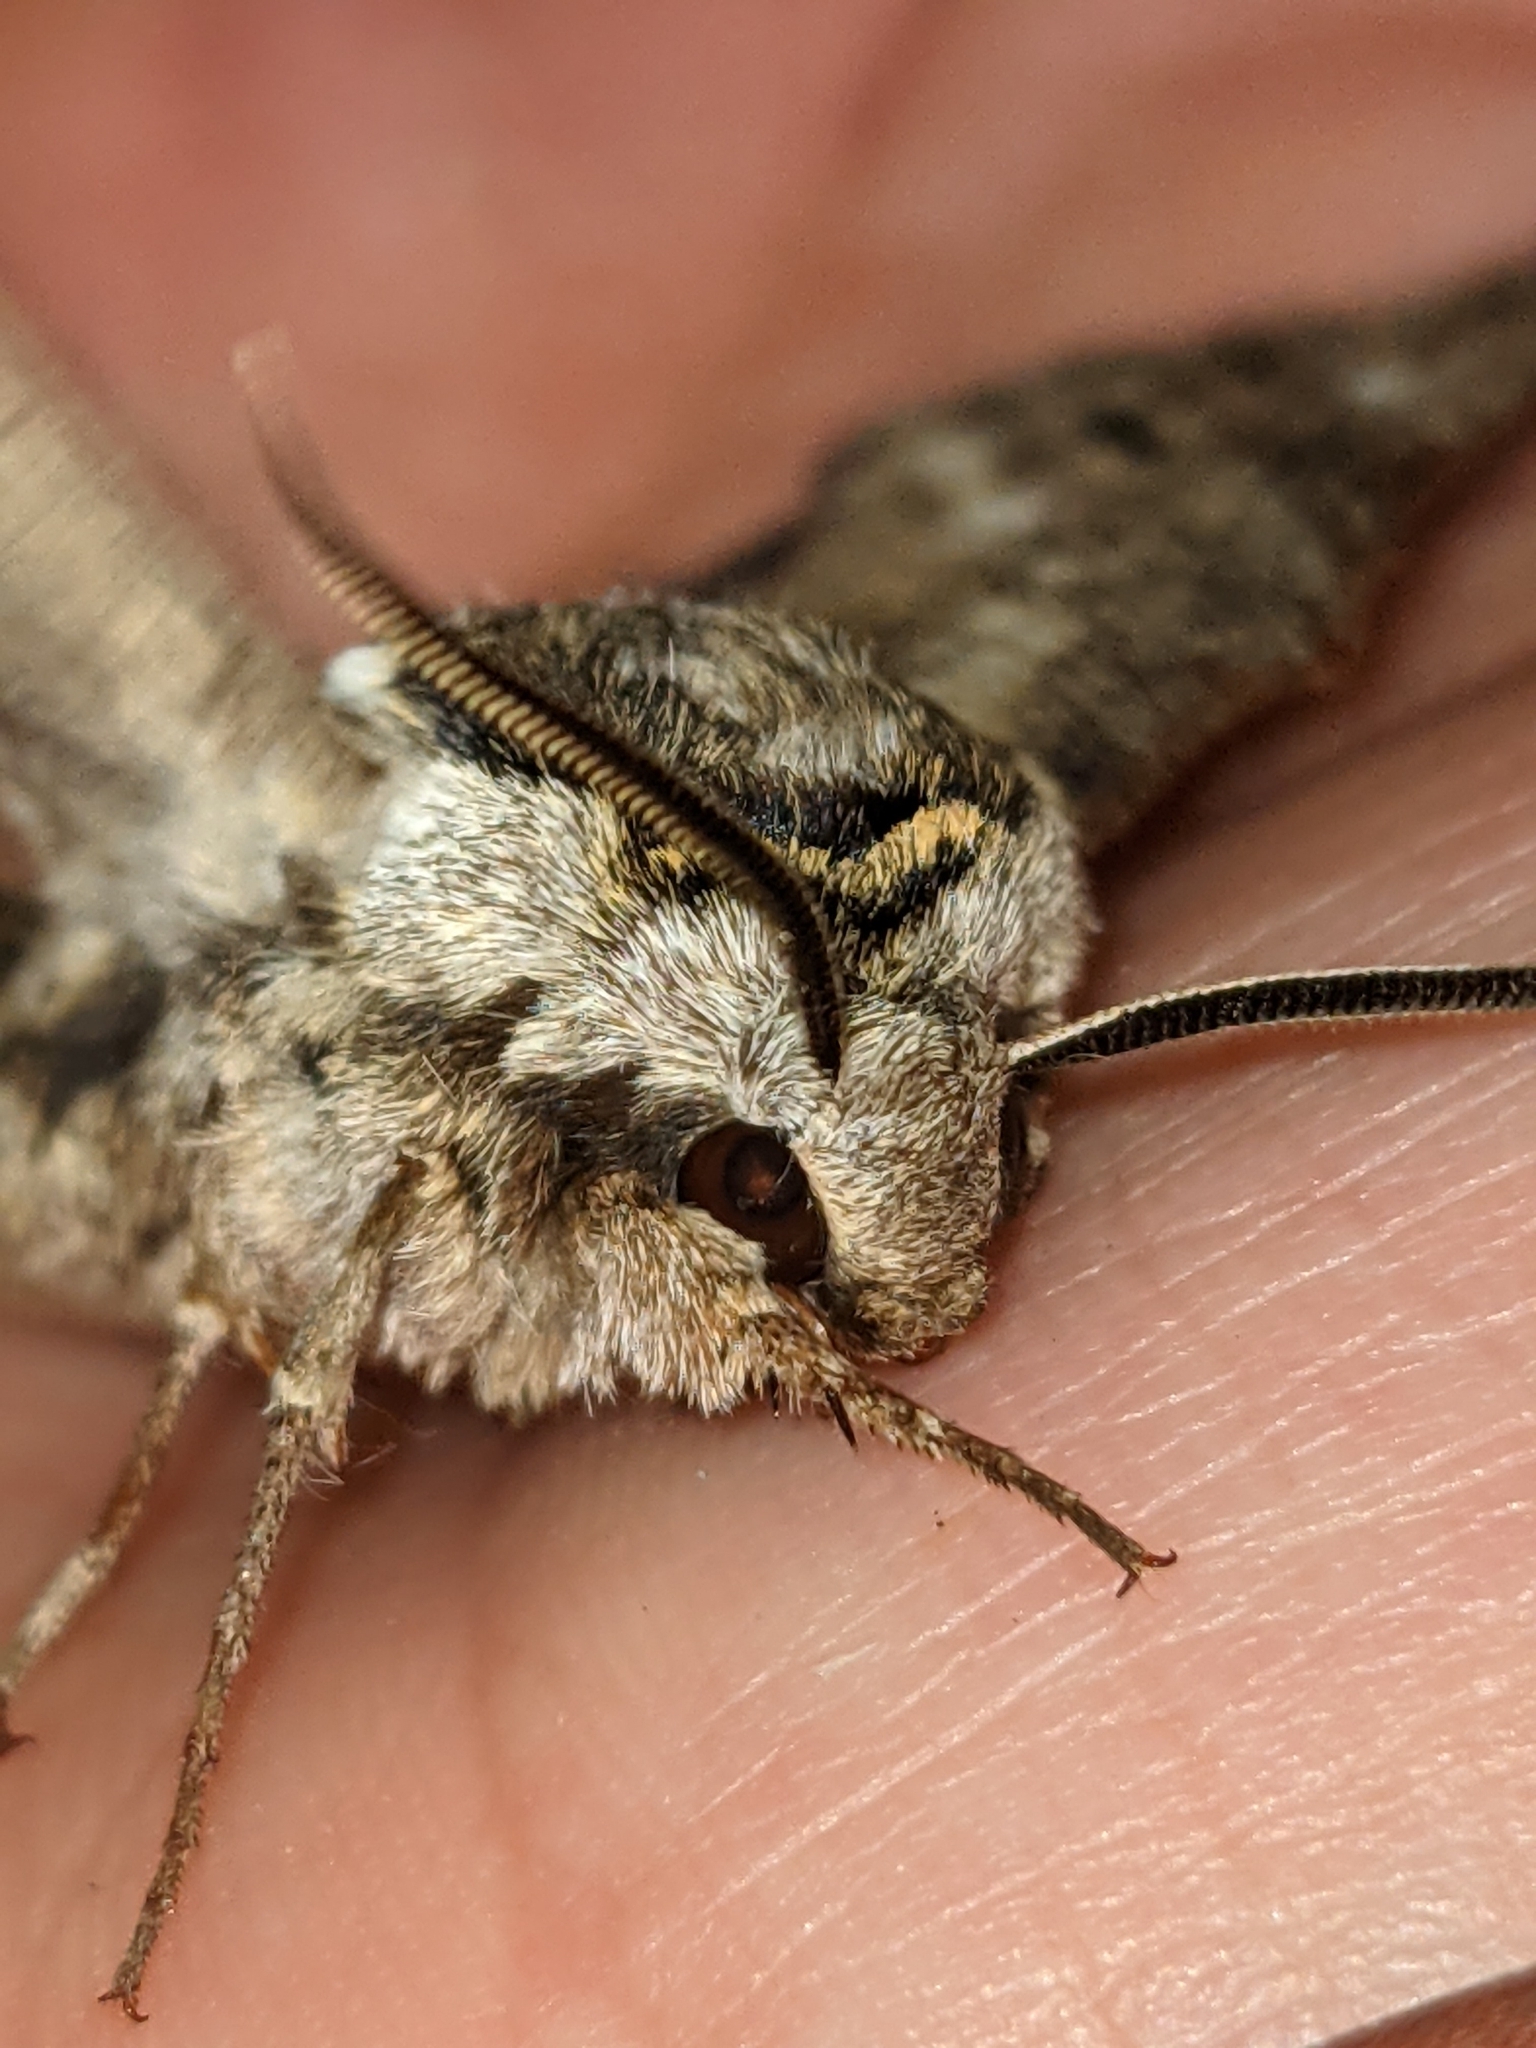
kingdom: Animalia
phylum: Arthropoda
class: Insecta
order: Lepidoptera
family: Sphingidae
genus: Ceratomia
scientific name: Ceratomia undulosa
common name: Waved sphinx
